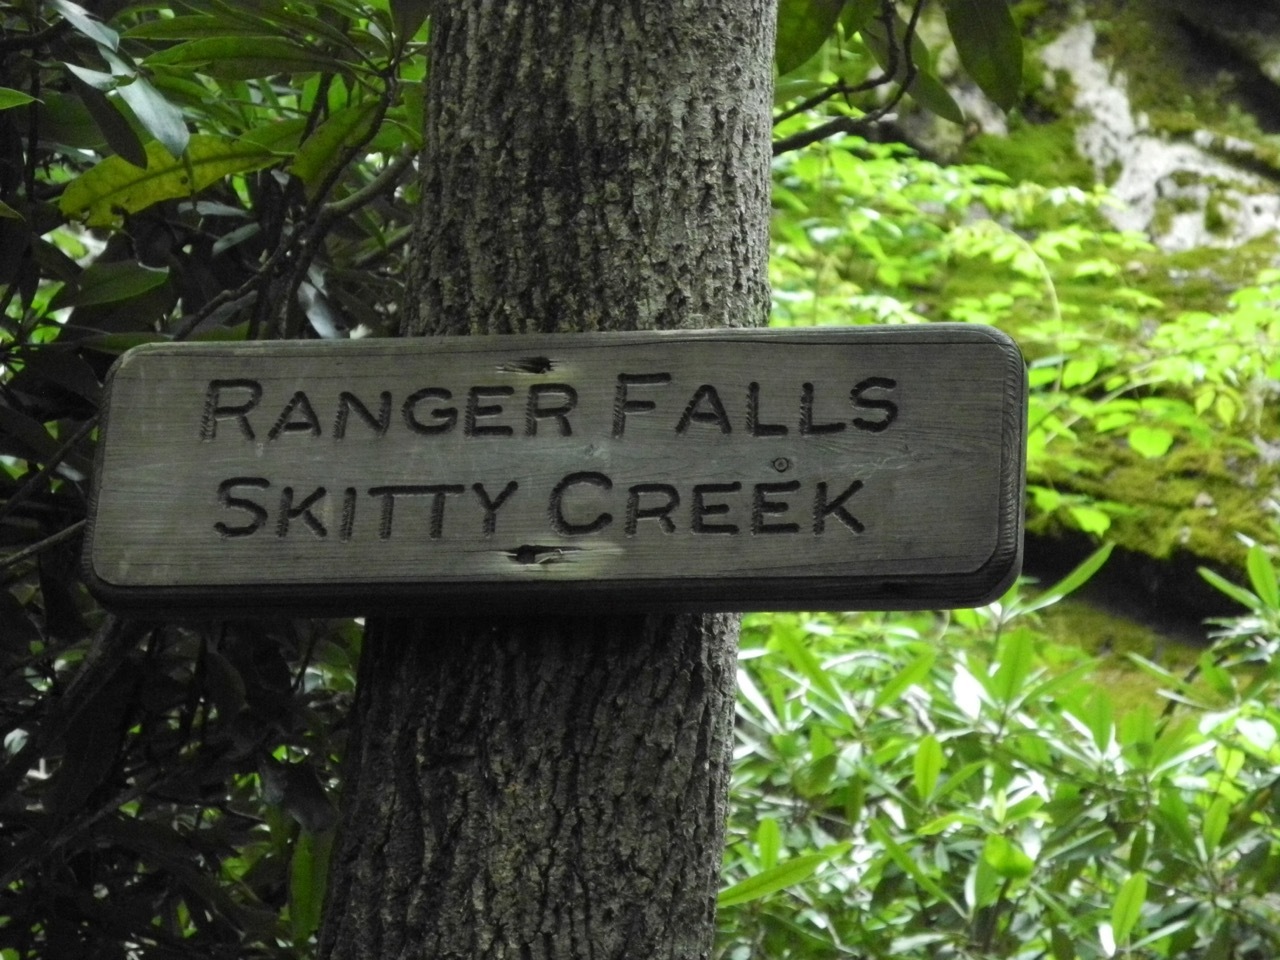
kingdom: Plantae
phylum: Tracheophyta
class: Polypodiopsida
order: Polypodiales
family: Dennstaedtiaceae
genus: Sitobolium
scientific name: Sitobolium punctilobum
